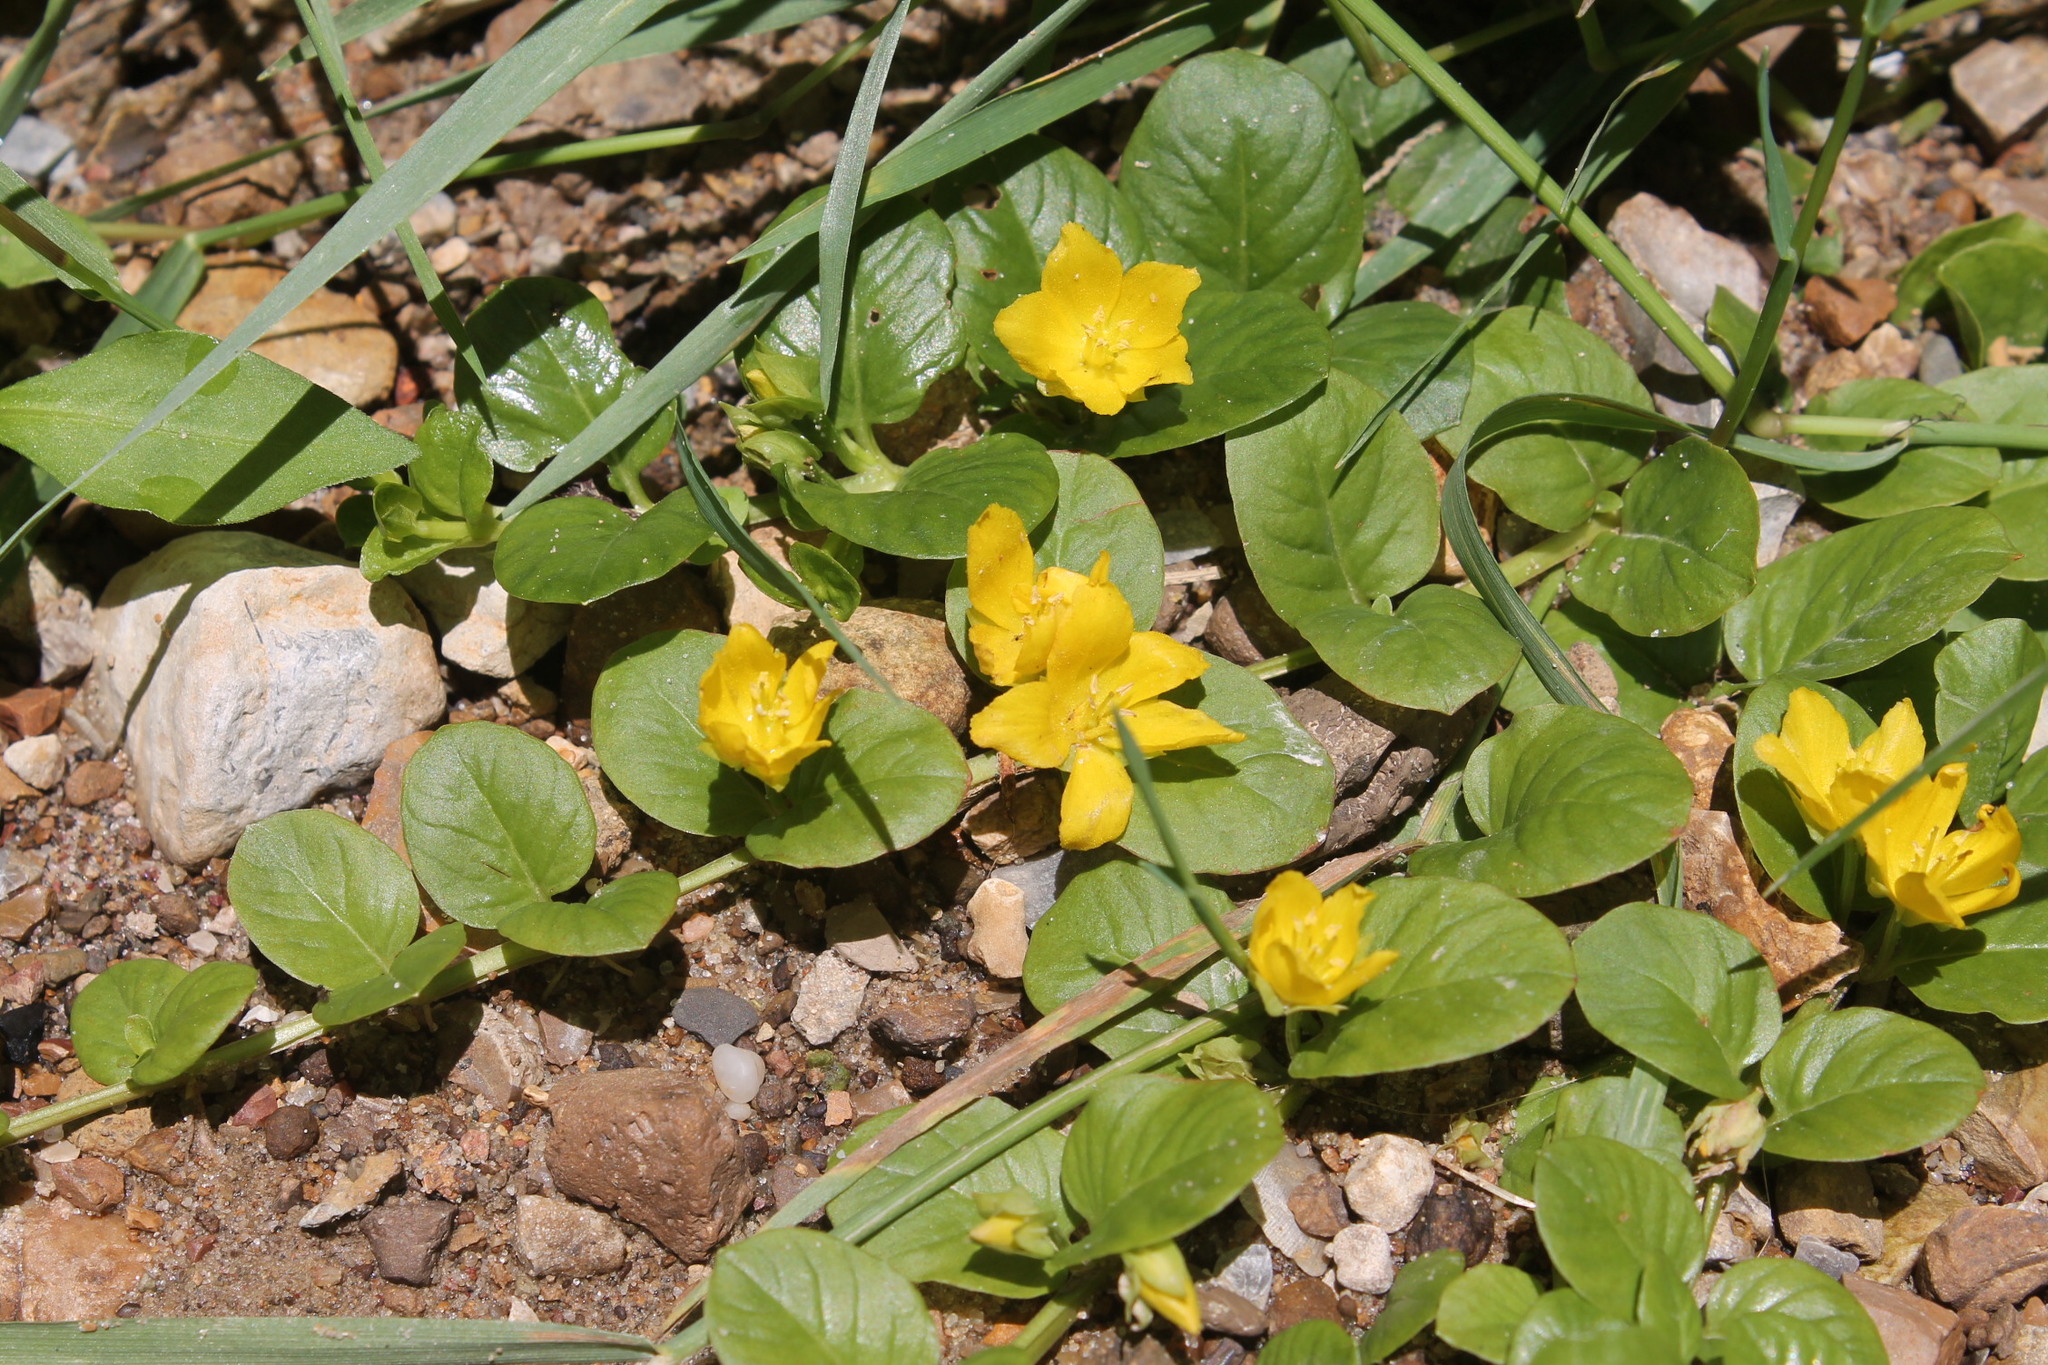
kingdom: Plantae
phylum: Tracheophyta
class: Magnoliopsida
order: Ericales
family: Primulaceae
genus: Lysimachia
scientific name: Lysimachia nummularia
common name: Moneywort
